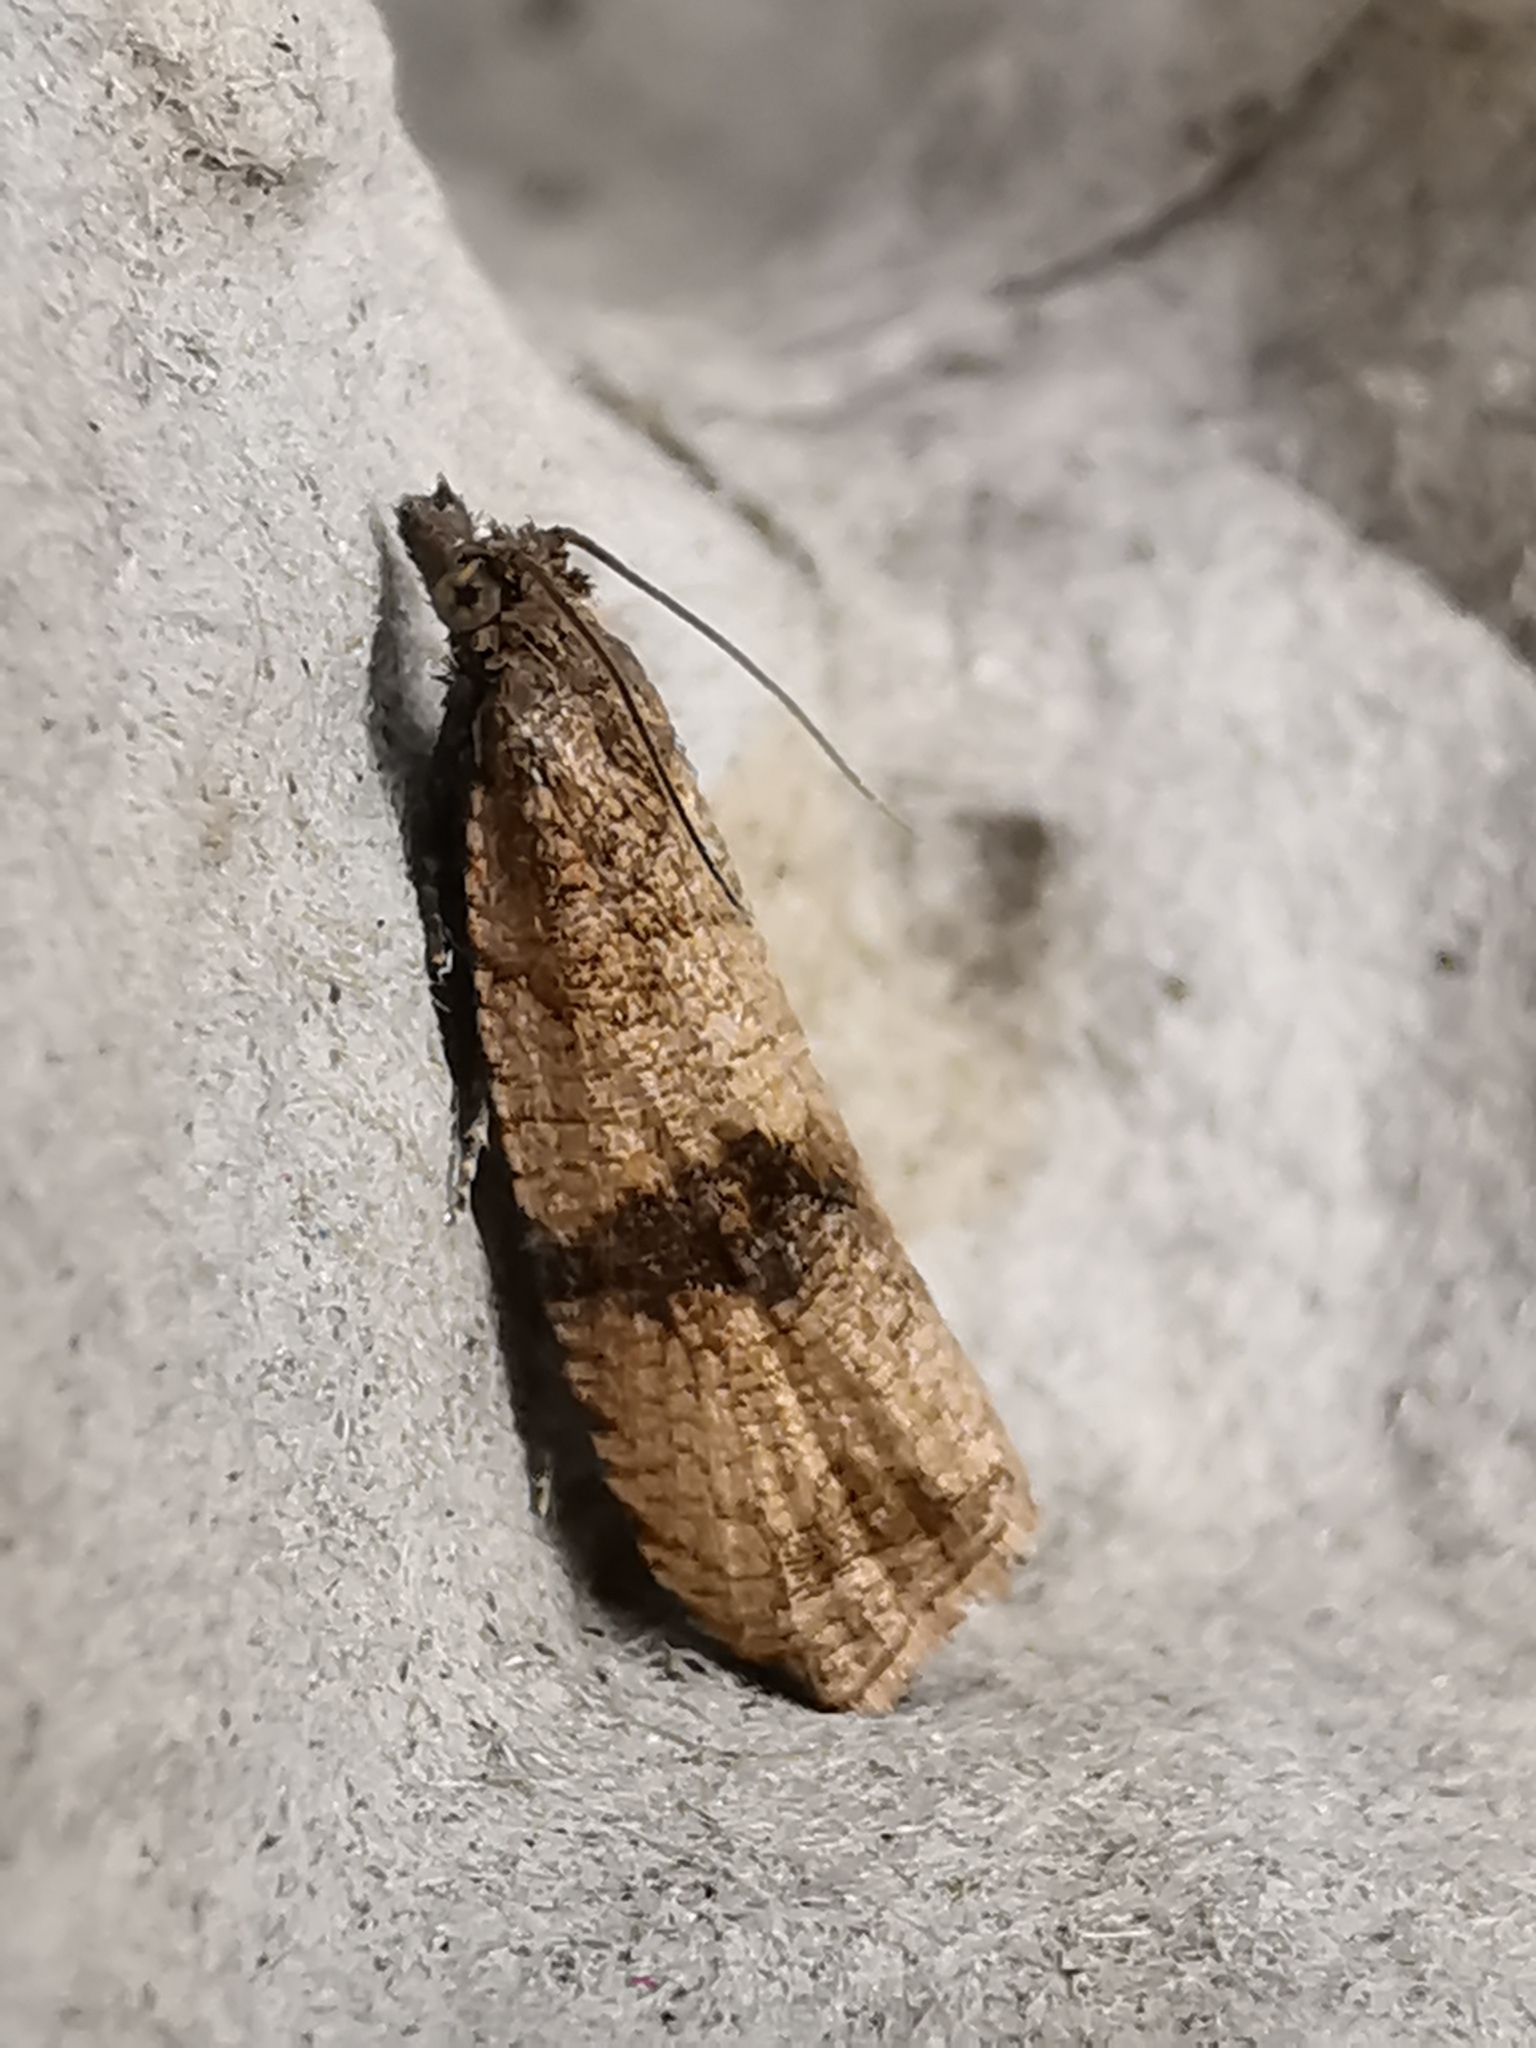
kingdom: Animalia
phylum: Arthropoda
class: Insecta
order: Lepidoptera
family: Tortricidae
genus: Celypha
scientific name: Celypha striana
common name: Barred marble
